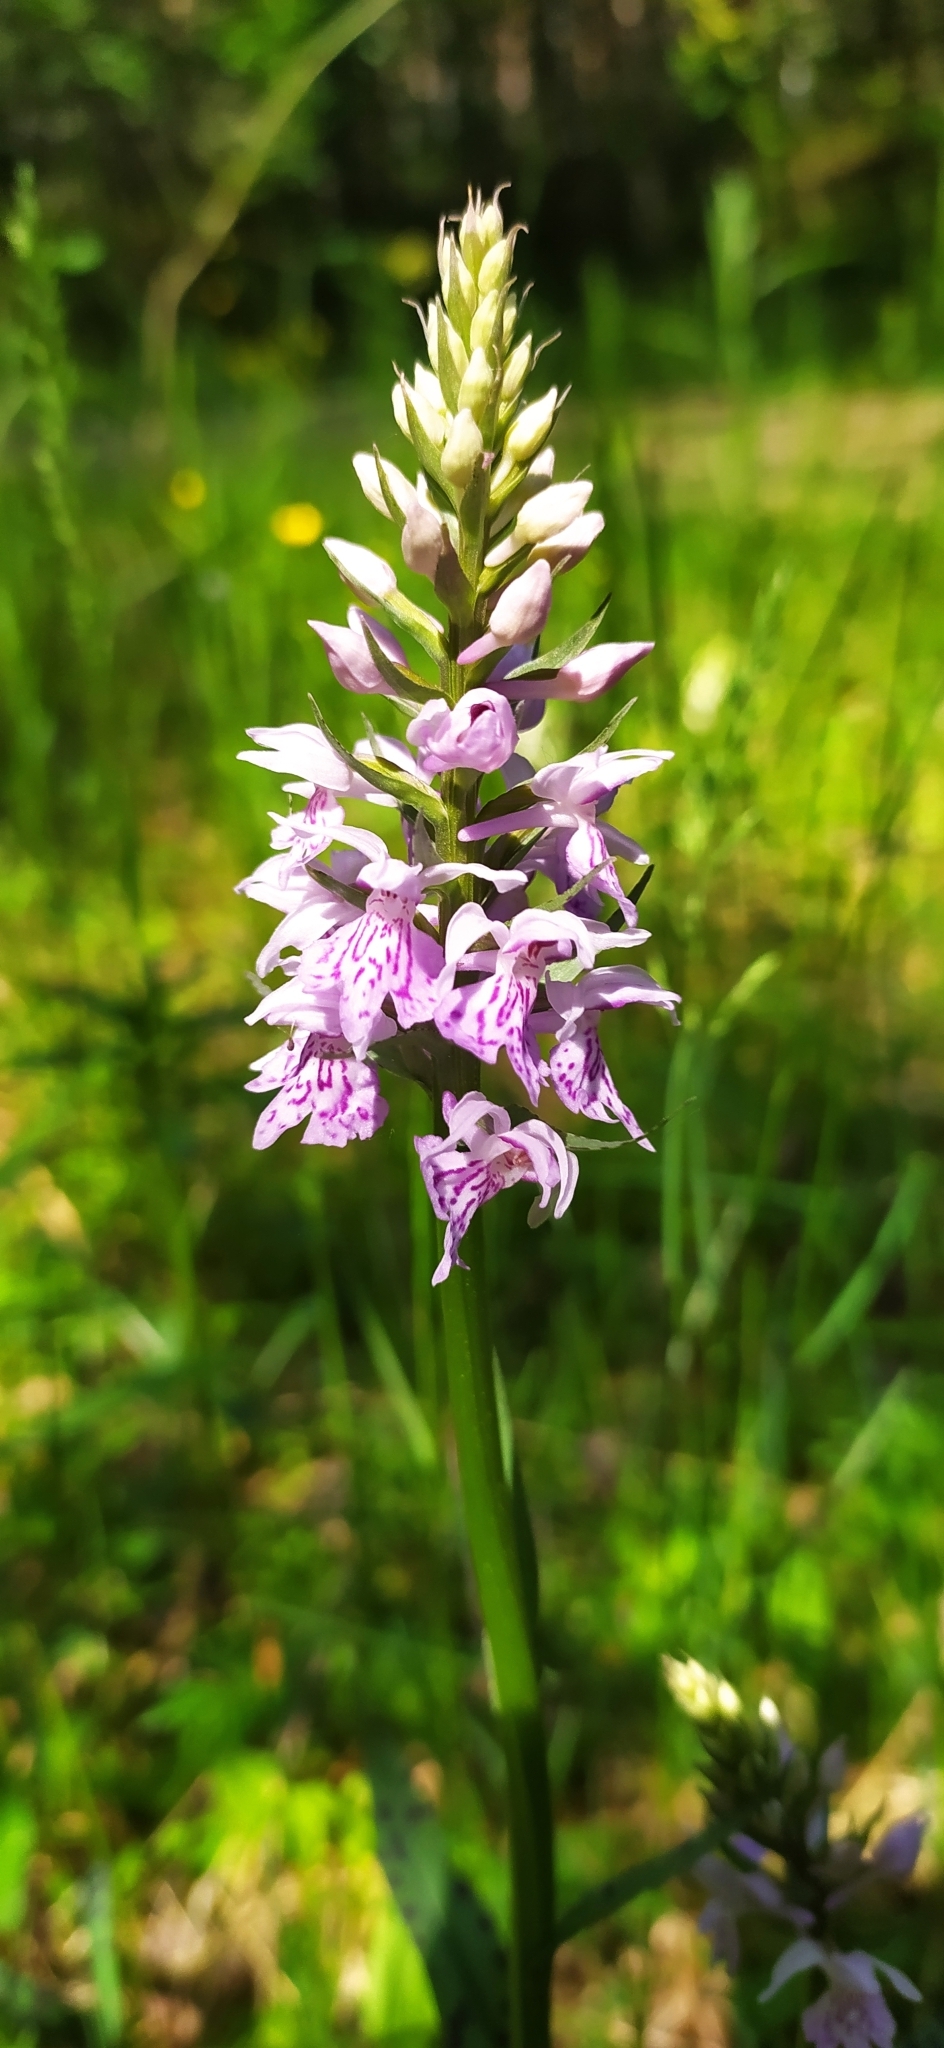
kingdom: Plantae
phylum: Tracheophyta
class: Liliopsida
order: Asparagales
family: Orchidaceae
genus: Dactylorhiza
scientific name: Dactylorhiza maculata
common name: Heath spotted-orchid
